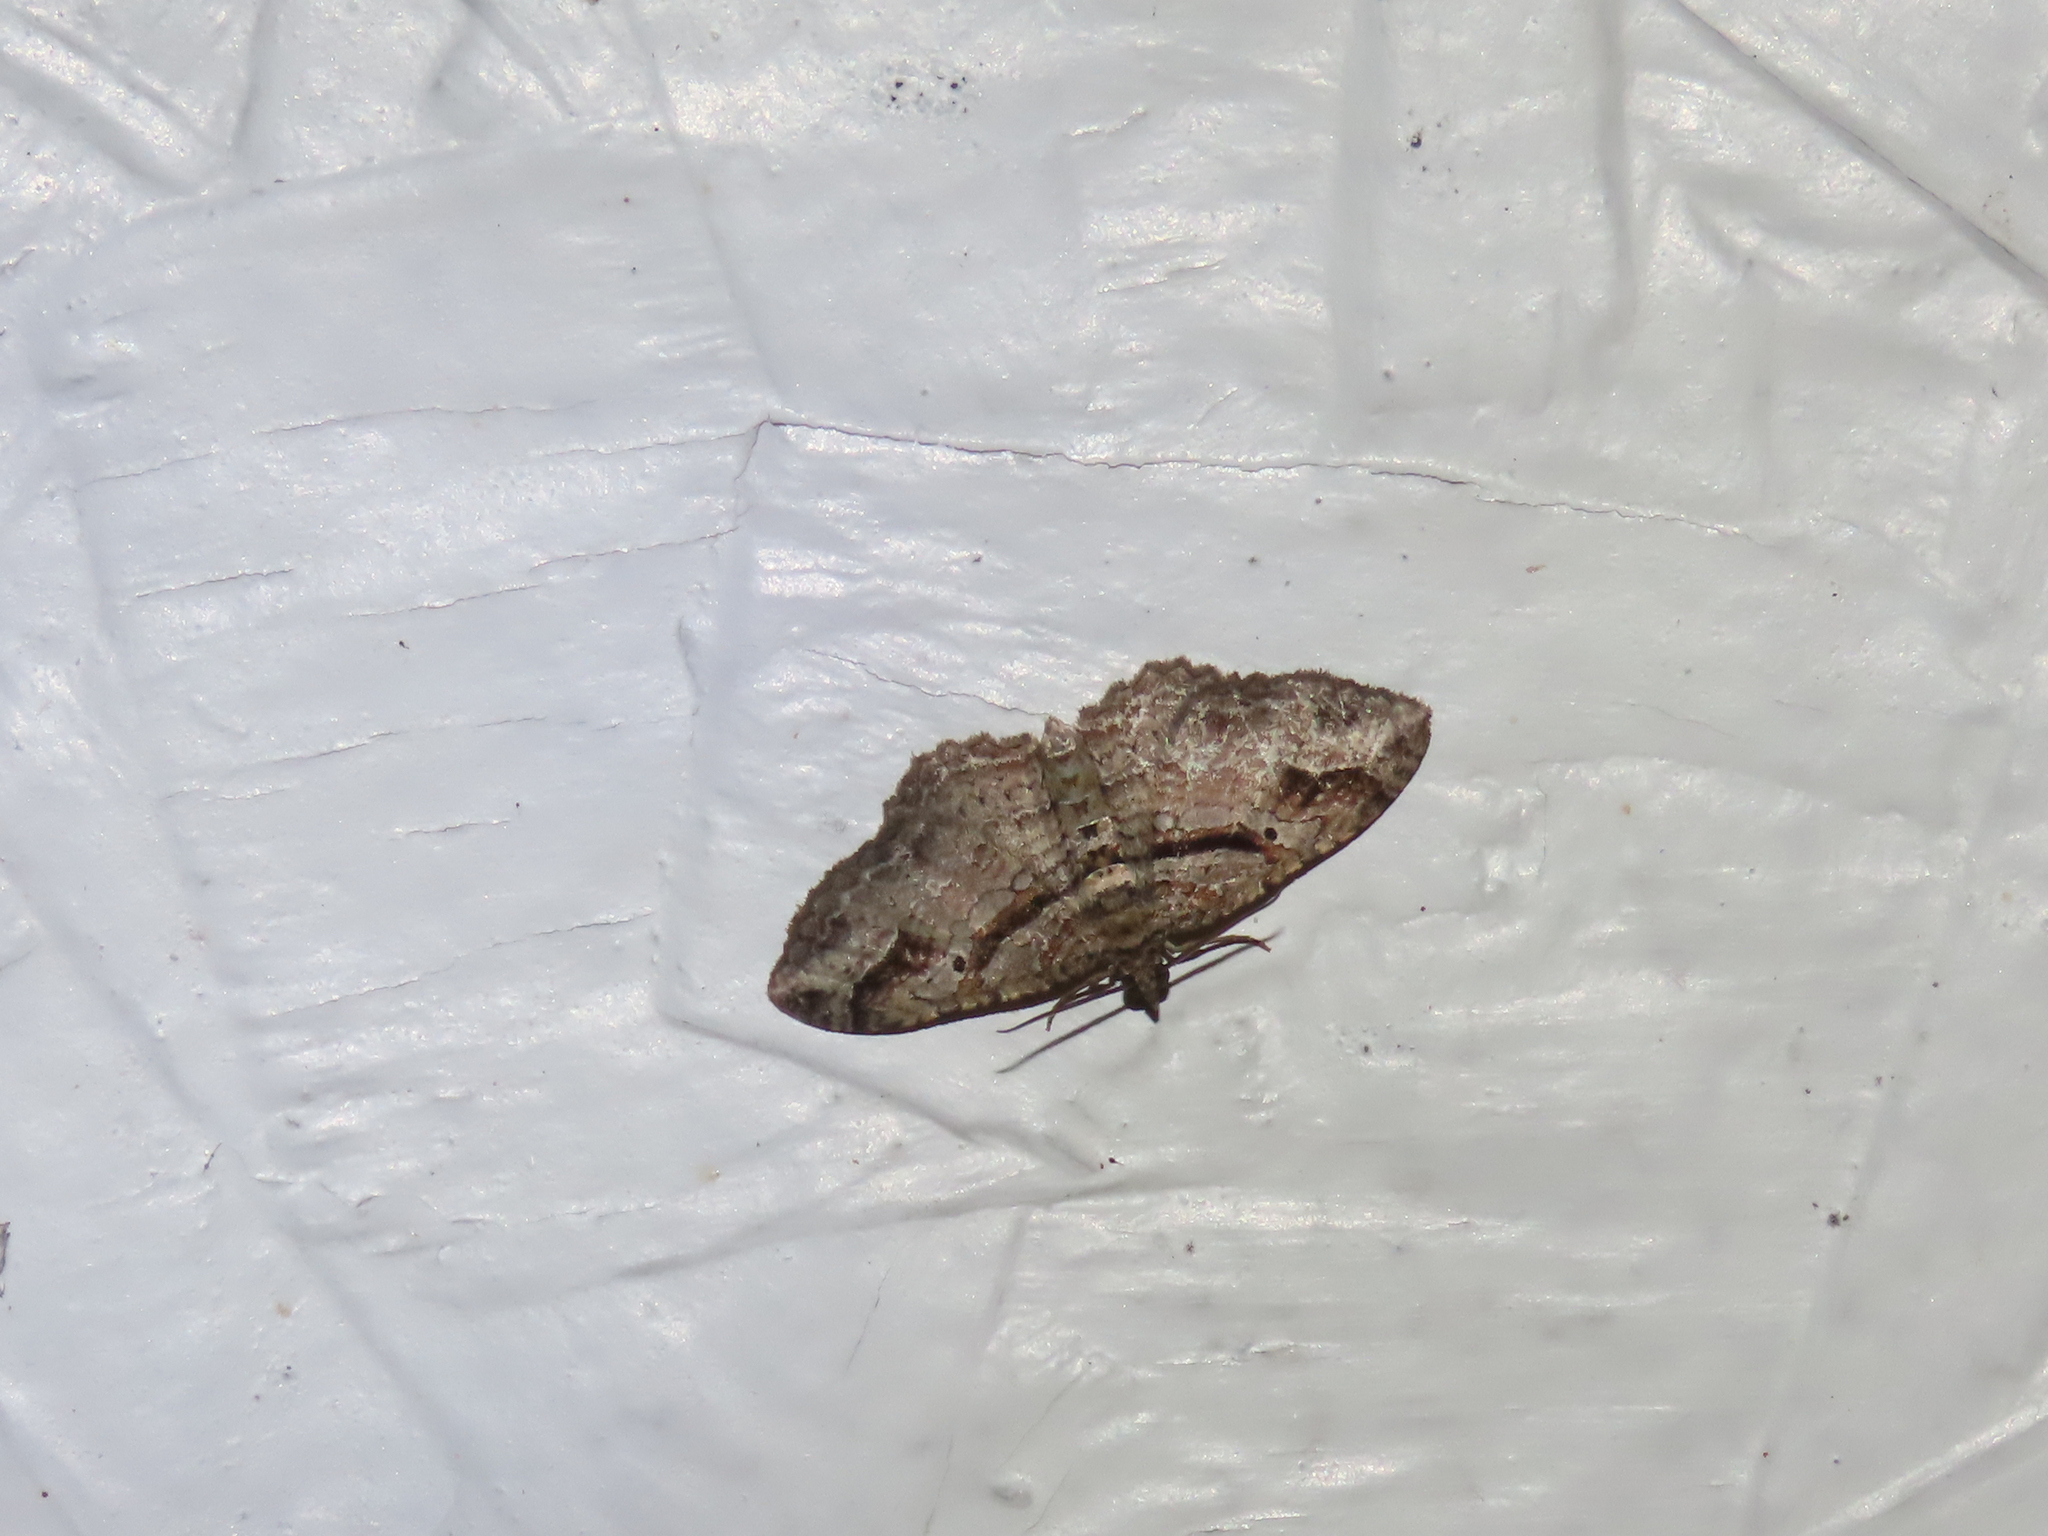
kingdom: Animalia
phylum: Arthropoda
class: Insecta
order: Lepidoptera
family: Geometridae
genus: Costaconvexa
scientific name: Costaconvexa centrostrigaria
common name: Bent-line carpet
